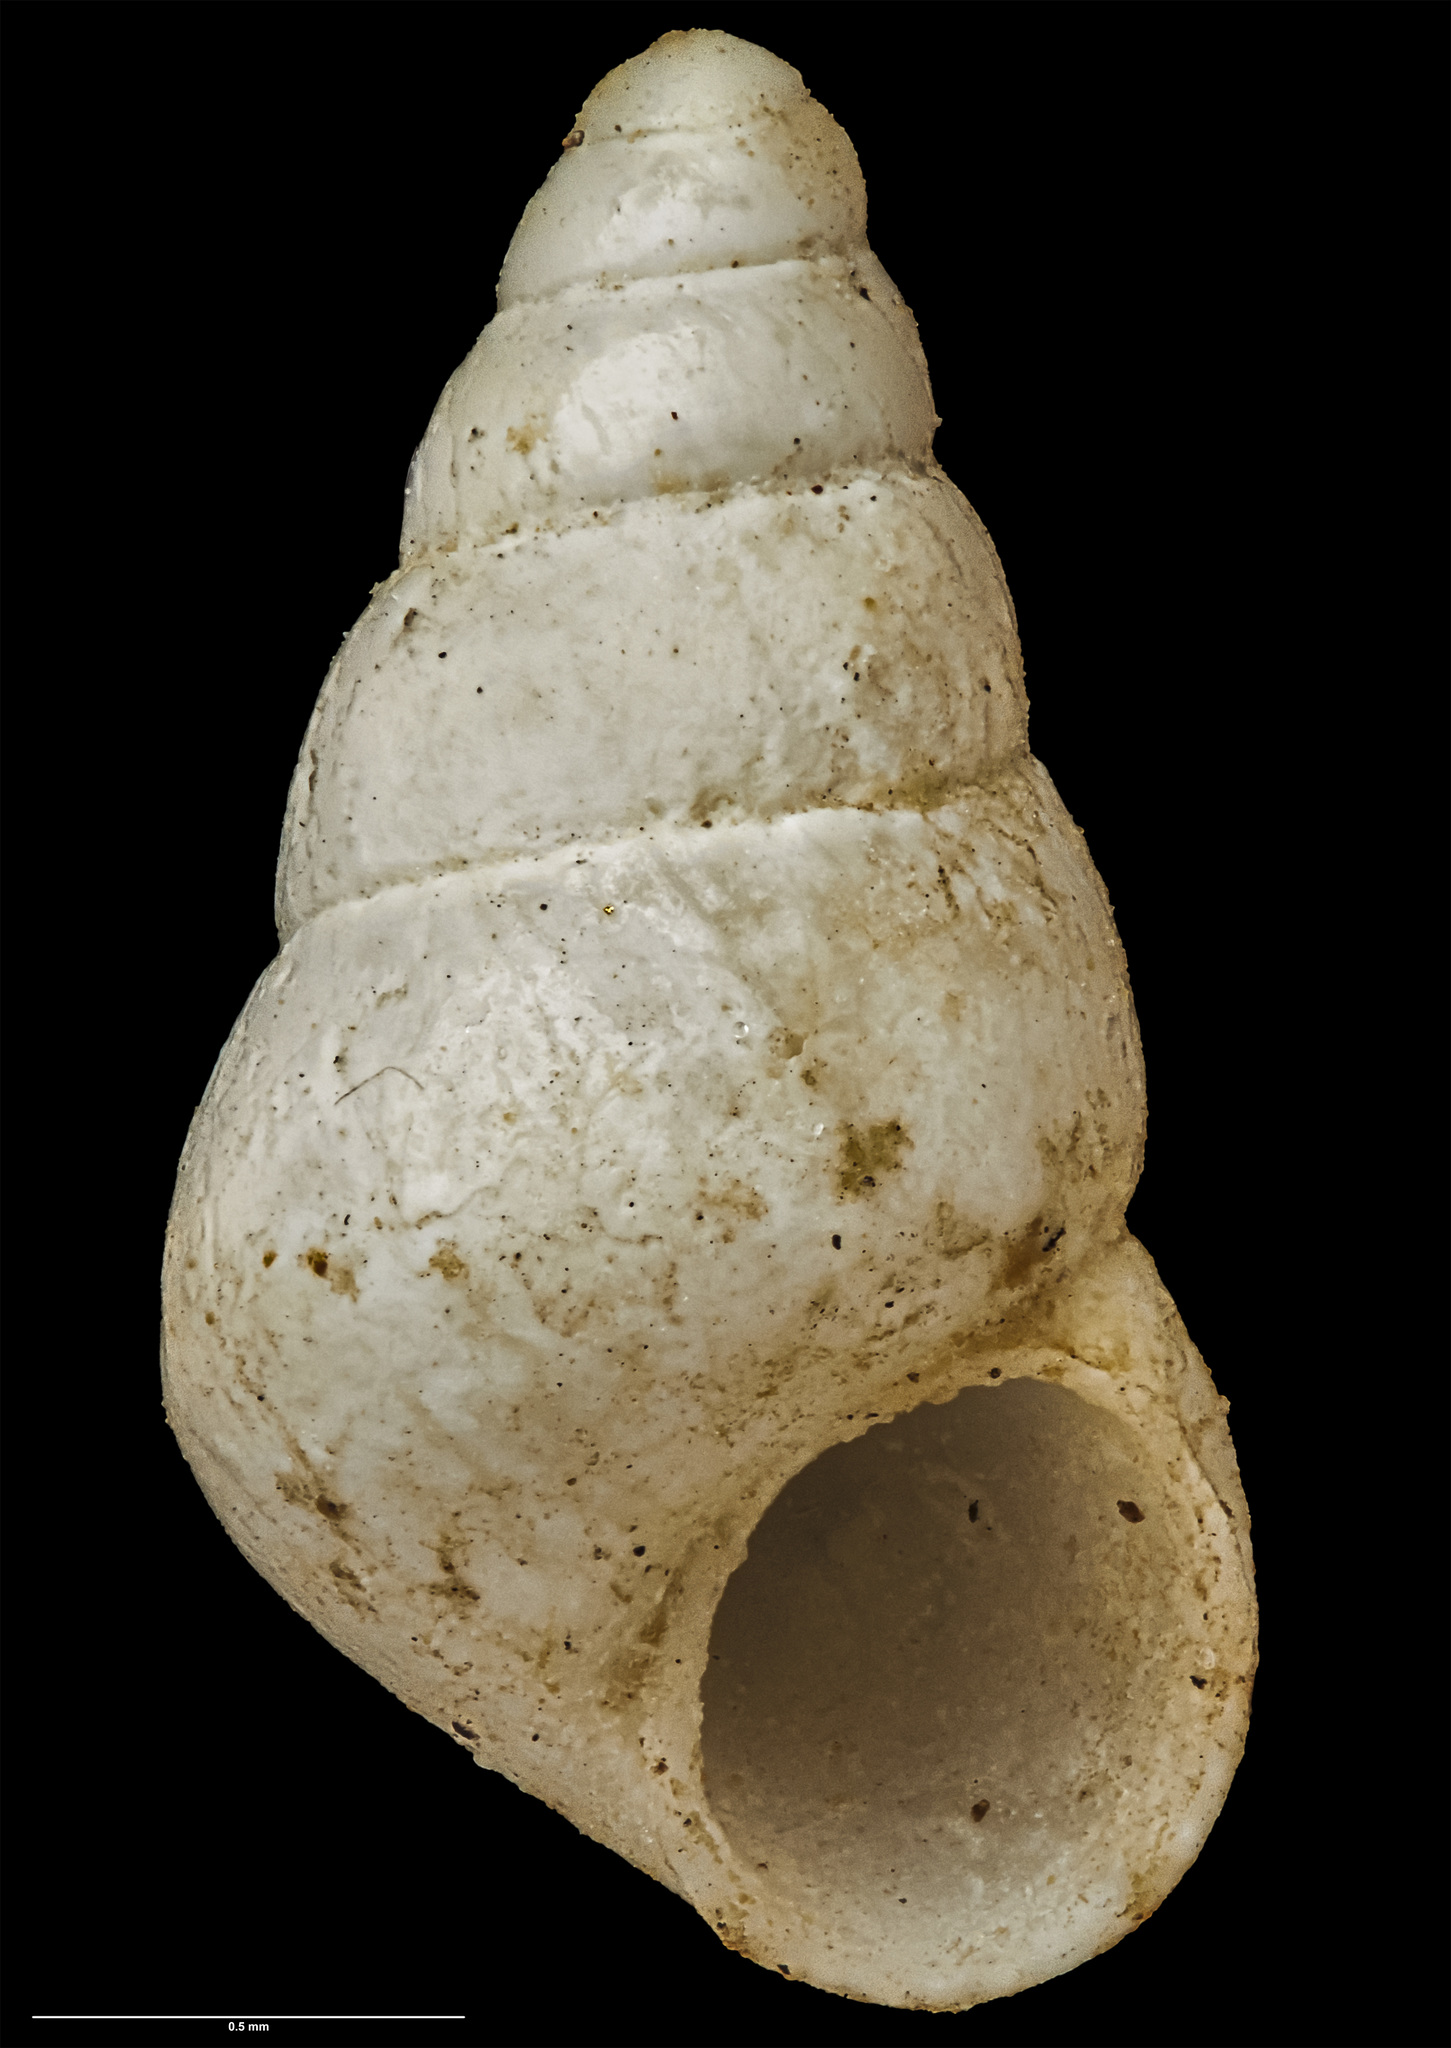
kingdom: Animalia
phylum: Mollusca
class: Gastropoda
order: Littorinimorpha
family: Eatoniellidae
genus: Eatoniella
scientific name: Eatoniella roseola
